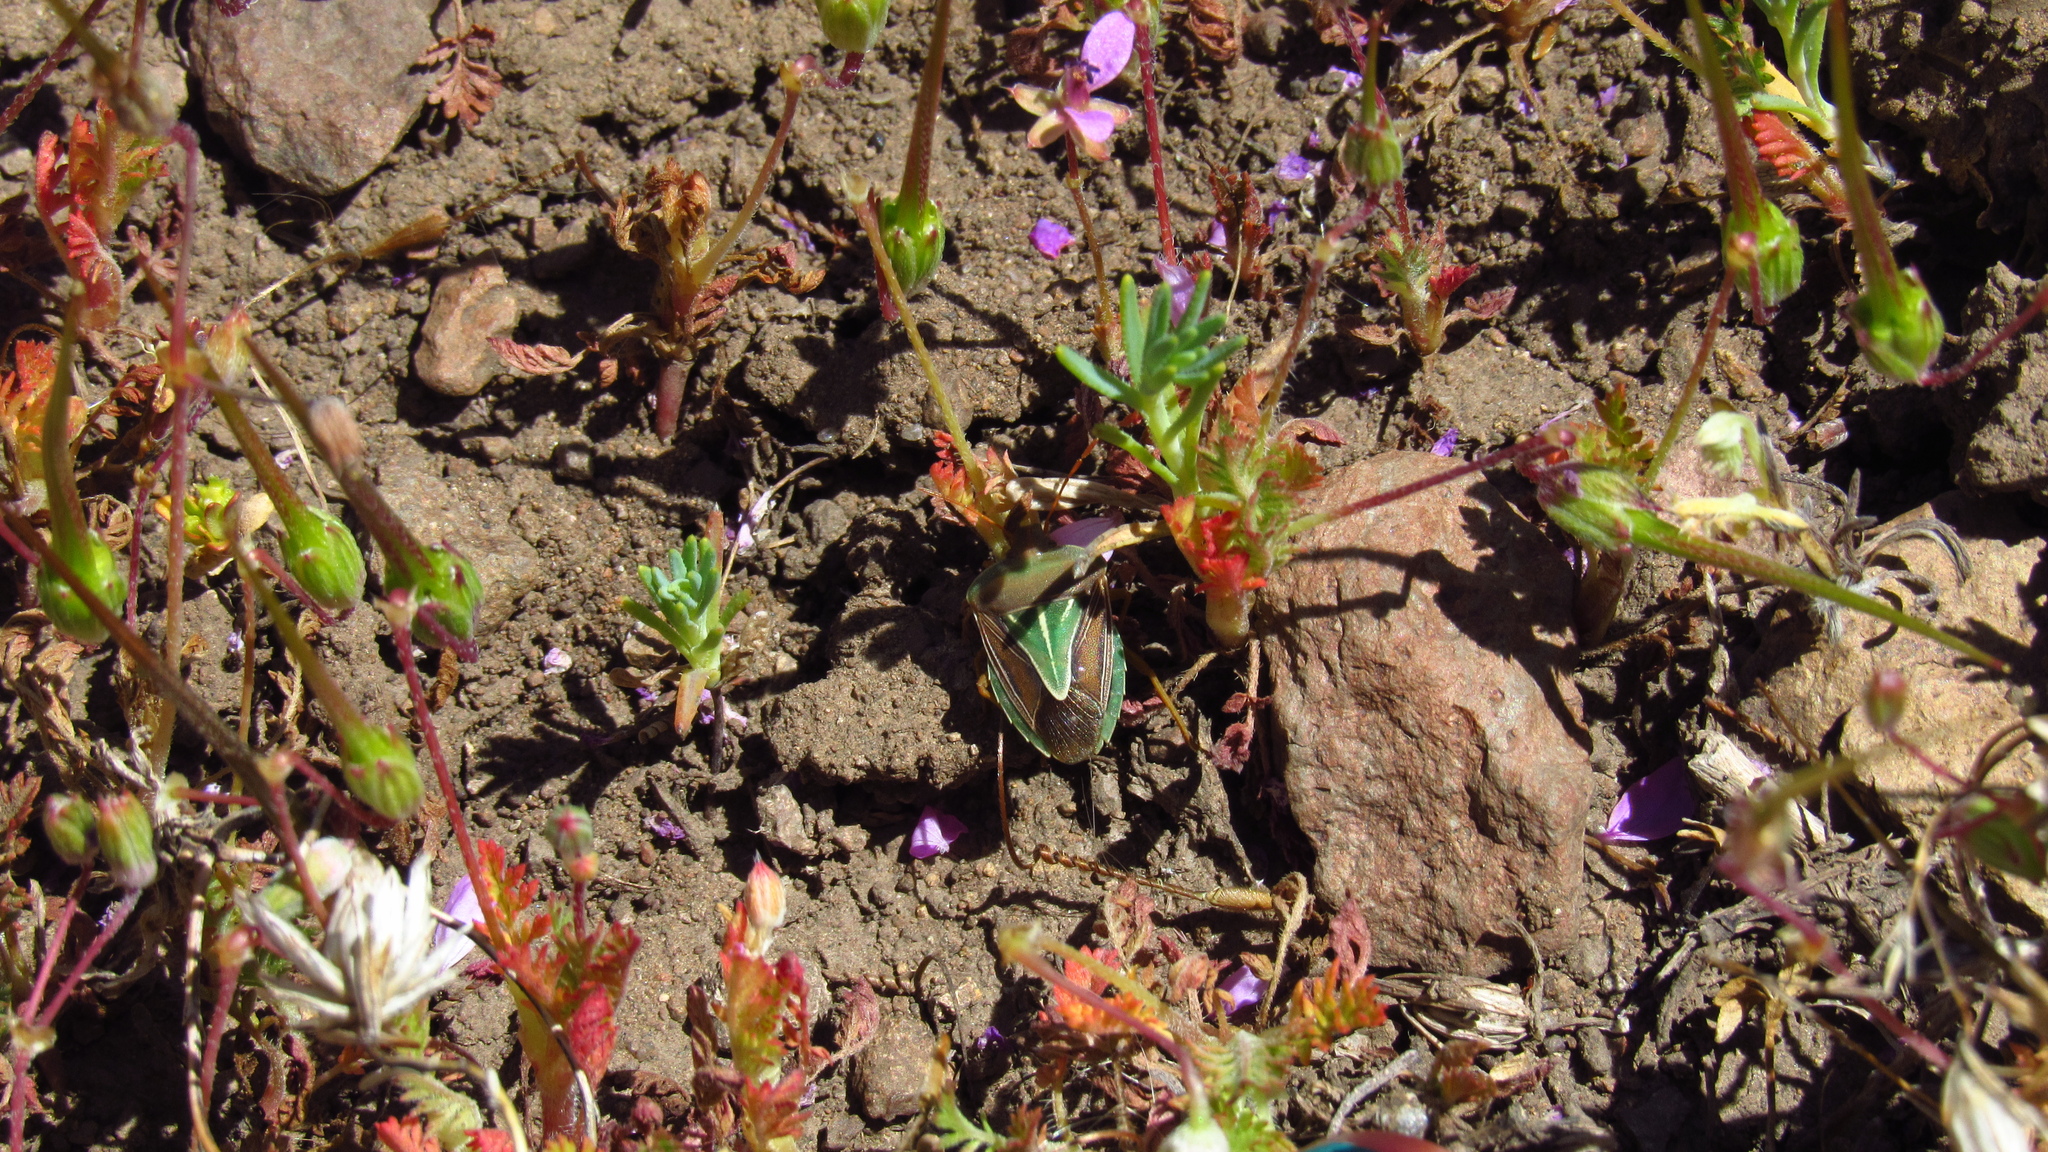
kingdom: Animalia
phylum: Arthropoda
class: Insecta
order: Hemiptera
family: Pentatomidae
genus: Acledra
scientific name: Acledra
